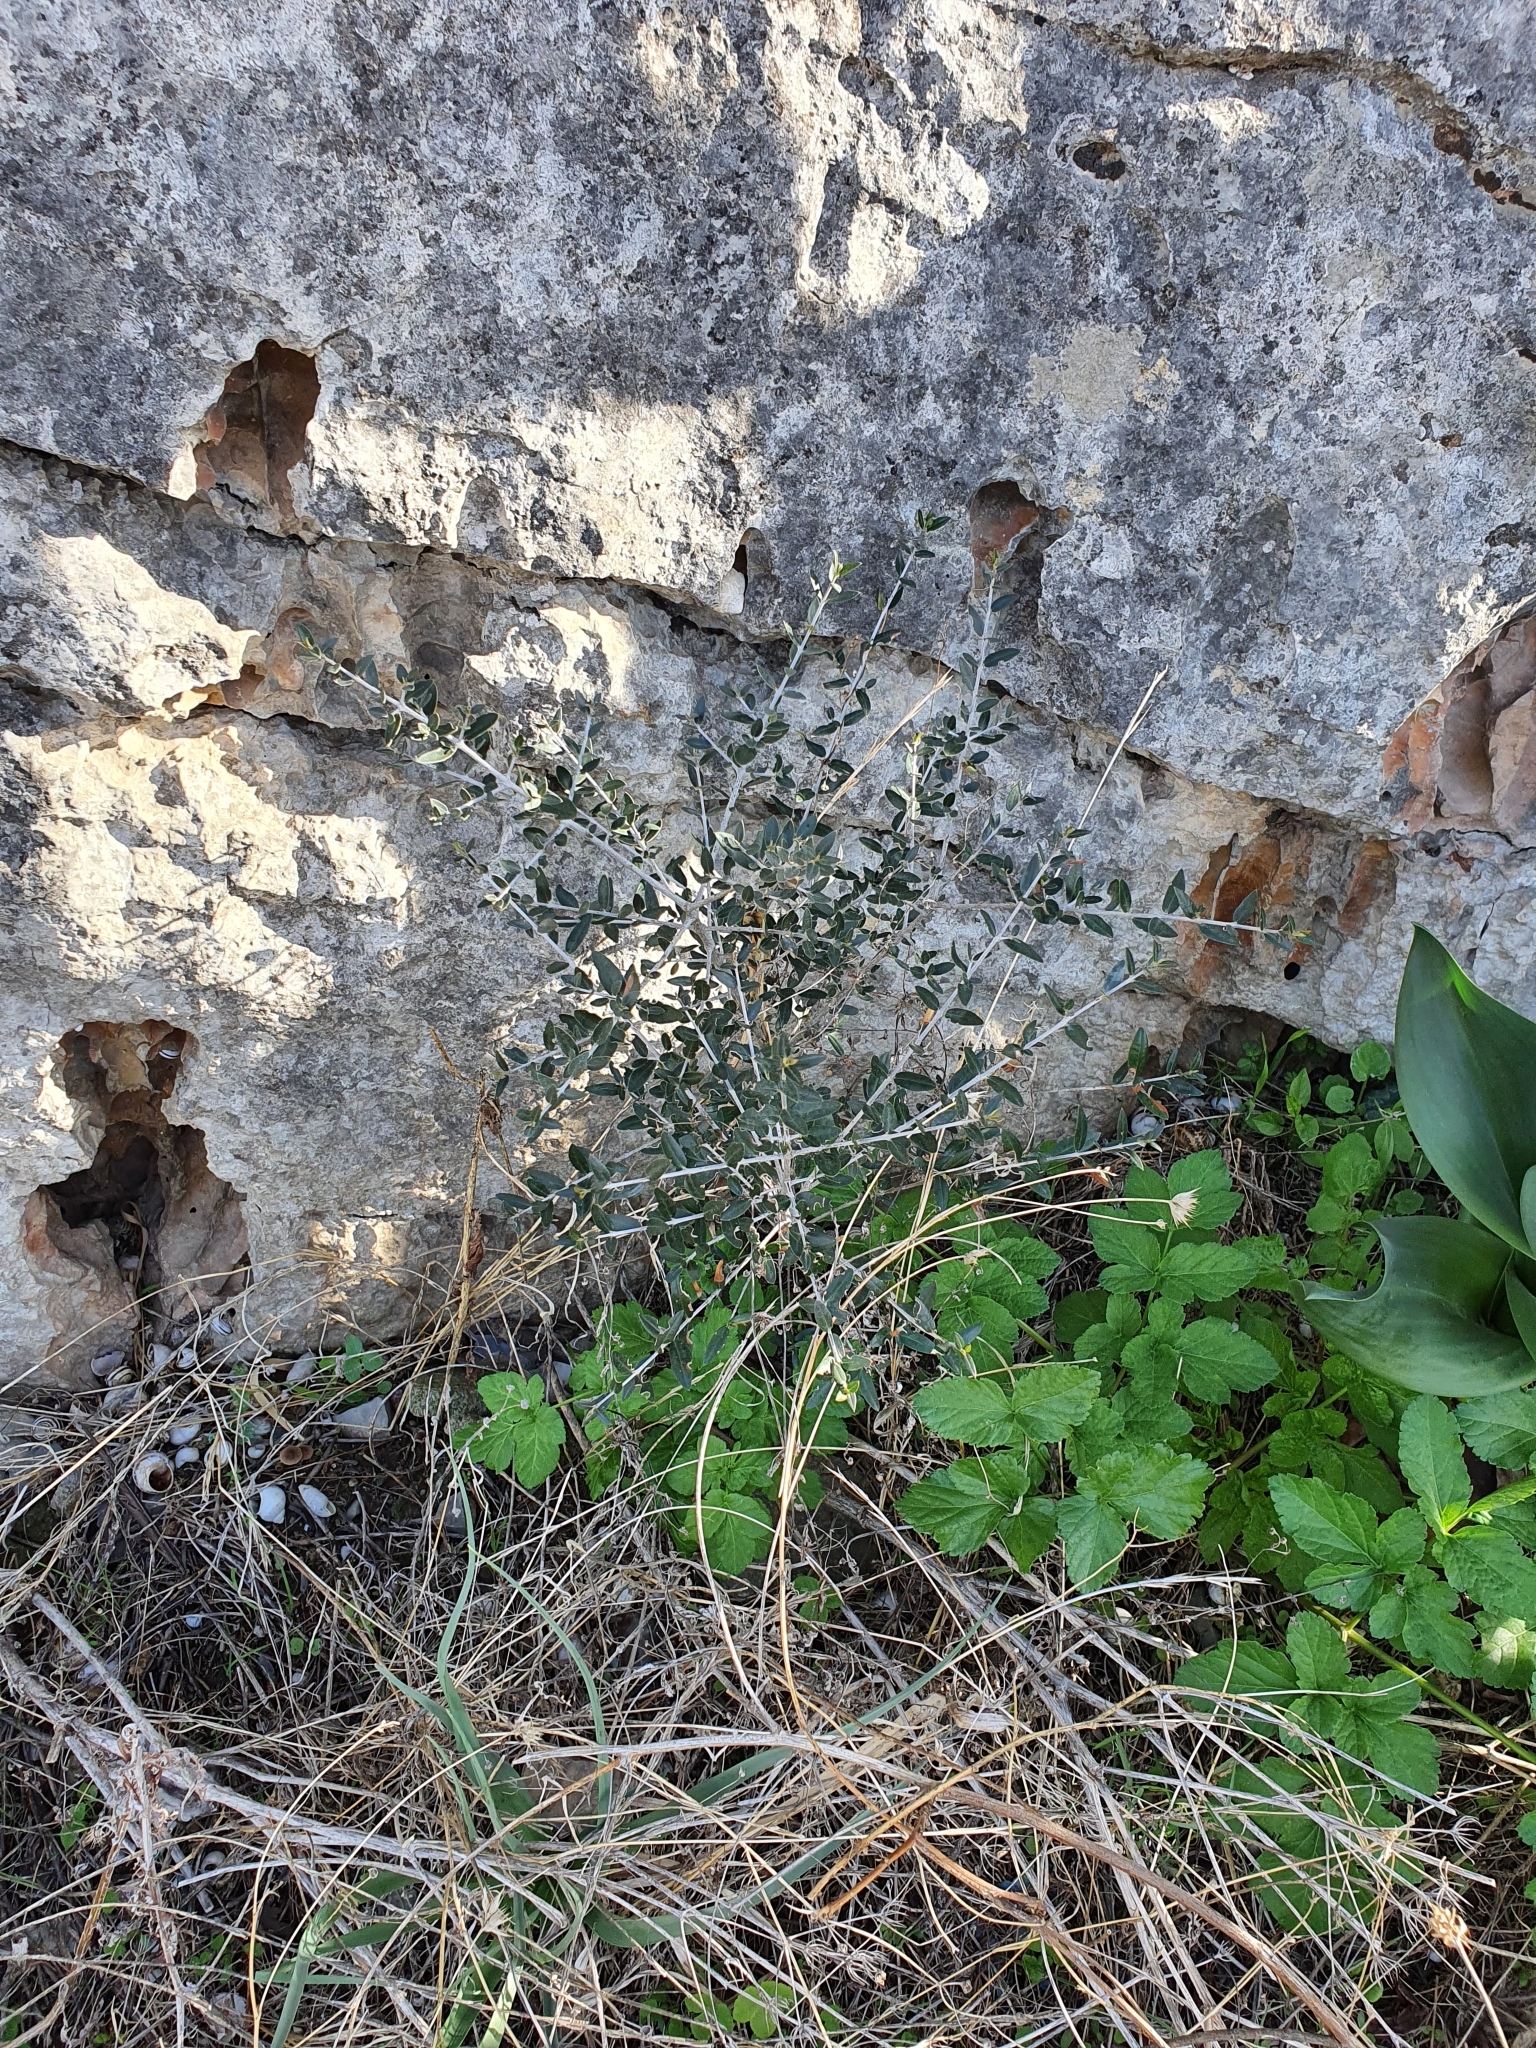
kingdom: Plantae
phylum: Tracheophyta
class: Magnoliopsida
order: Lamiales
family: Oleaceae
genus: Olea
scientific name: Olea europaea
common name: Olive
